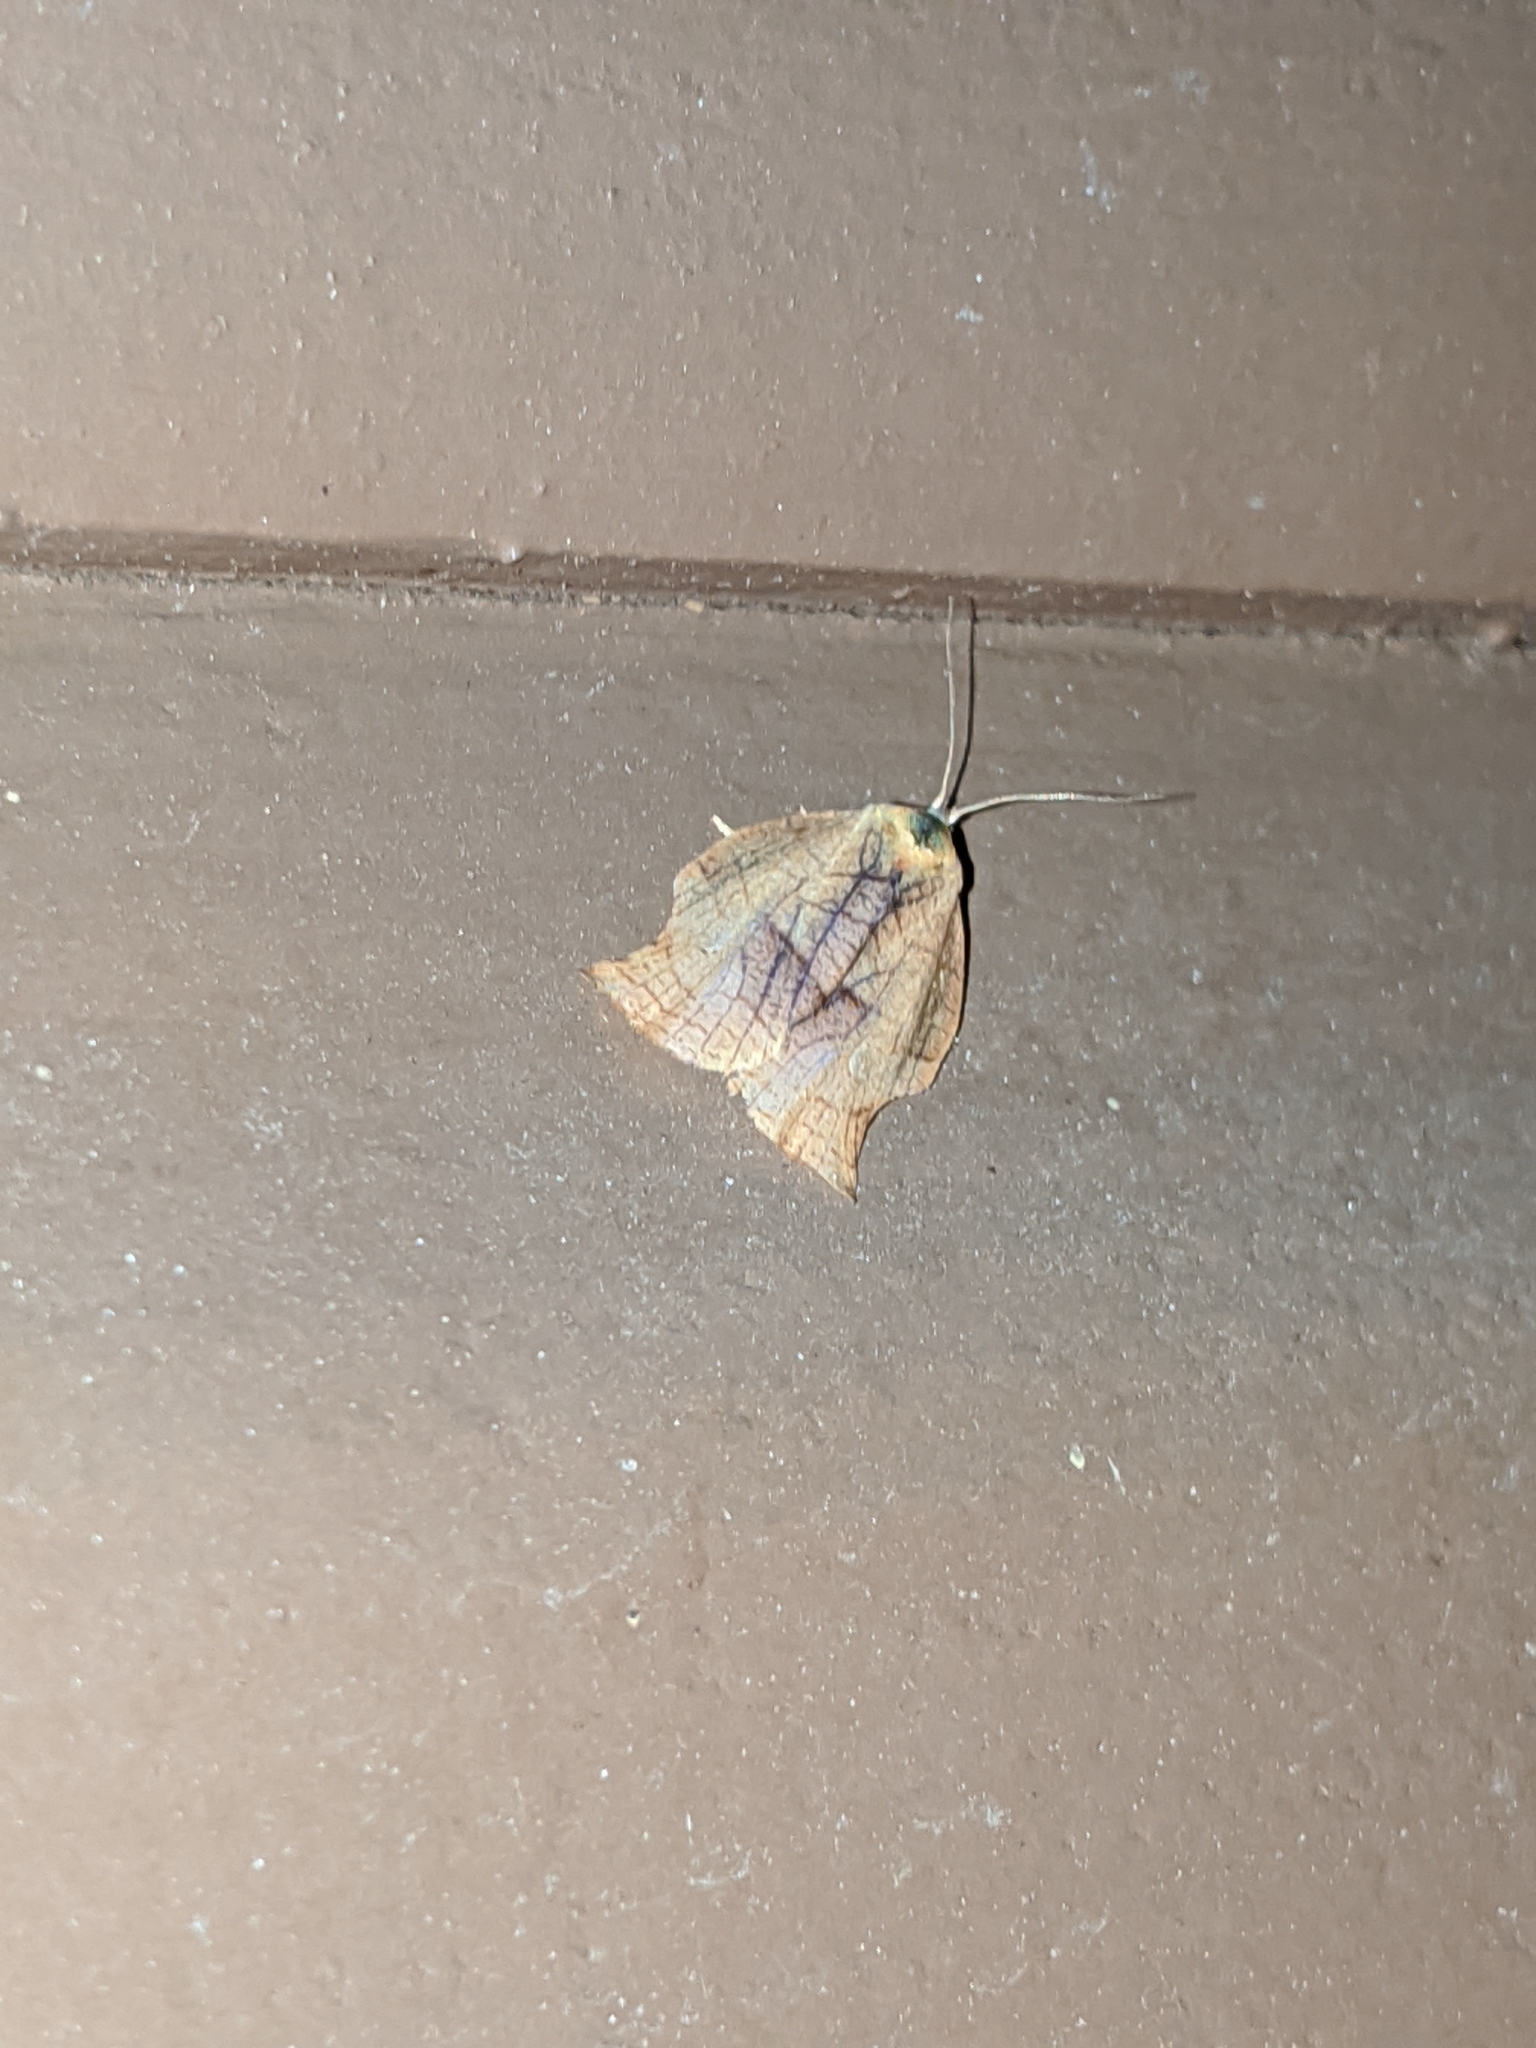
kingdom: Animalia
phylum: Arthropoda
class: Insecta
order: Lepidoptera
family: Tortricidae
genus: Archips
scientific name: Archips purpurana
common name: Omnivorous leafroller
